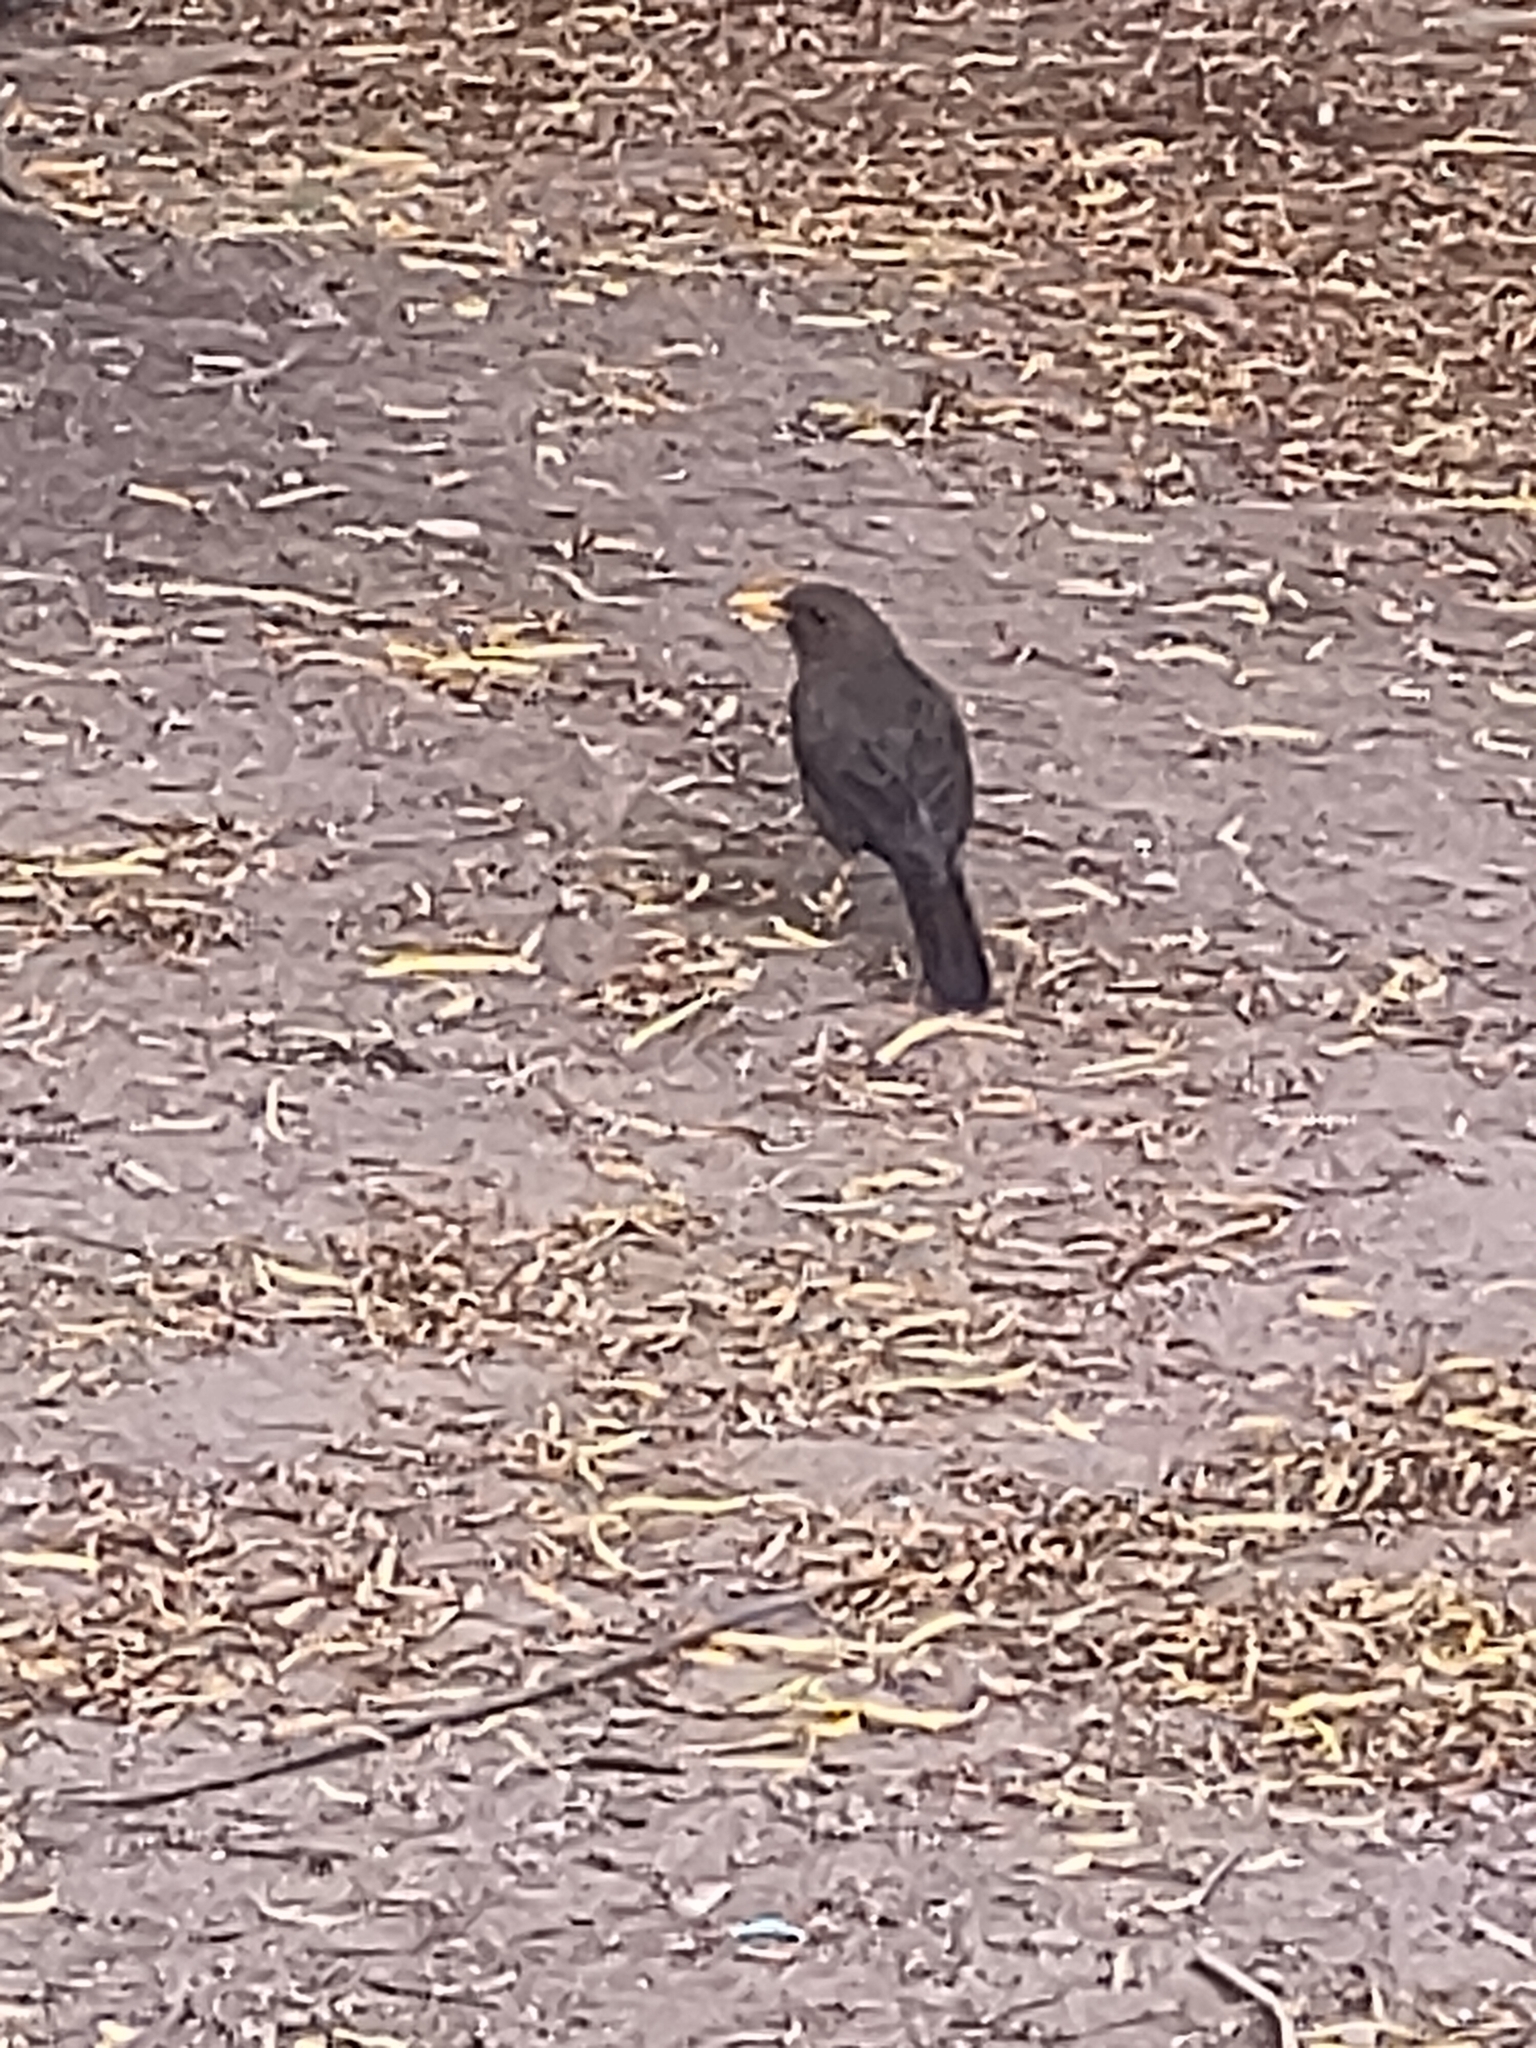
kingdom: Animalia
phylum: Chordata
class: Aves
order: Passeriformes
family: Turdidae
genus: Turdus
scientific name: Turdus fuscater
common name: Great thrush
